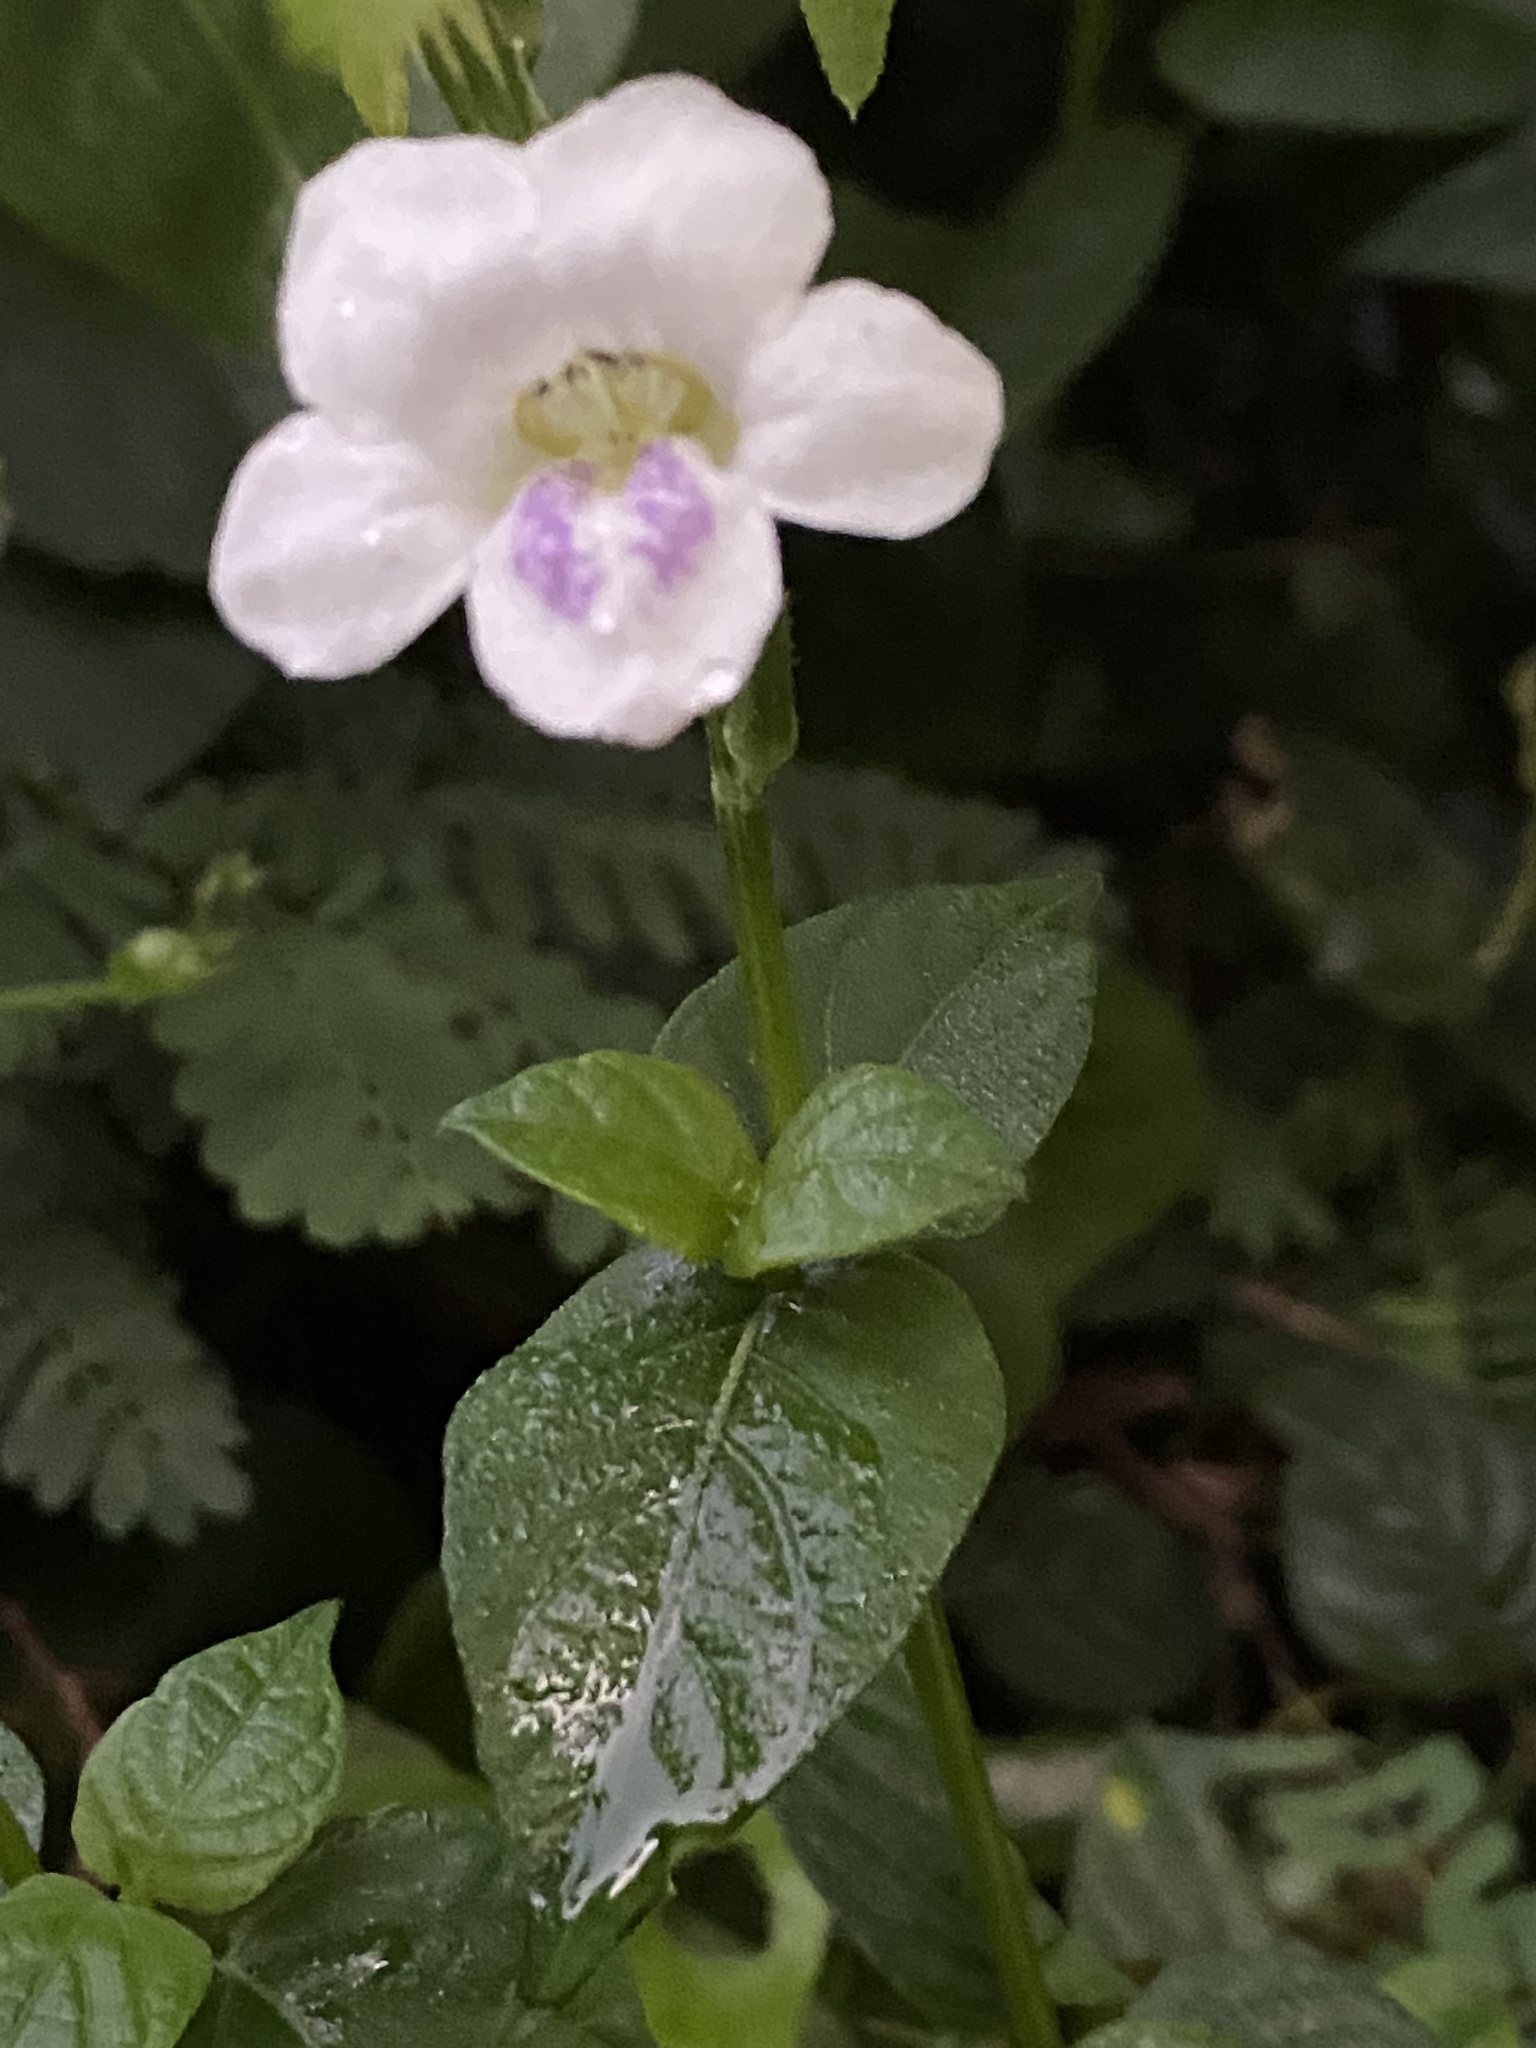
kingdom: Plantae
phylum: Tracheophyta
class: Magnoliopsida
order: Lamiales
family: Acanthaceae
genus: Asystasia
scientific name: Asystasia intrusa
